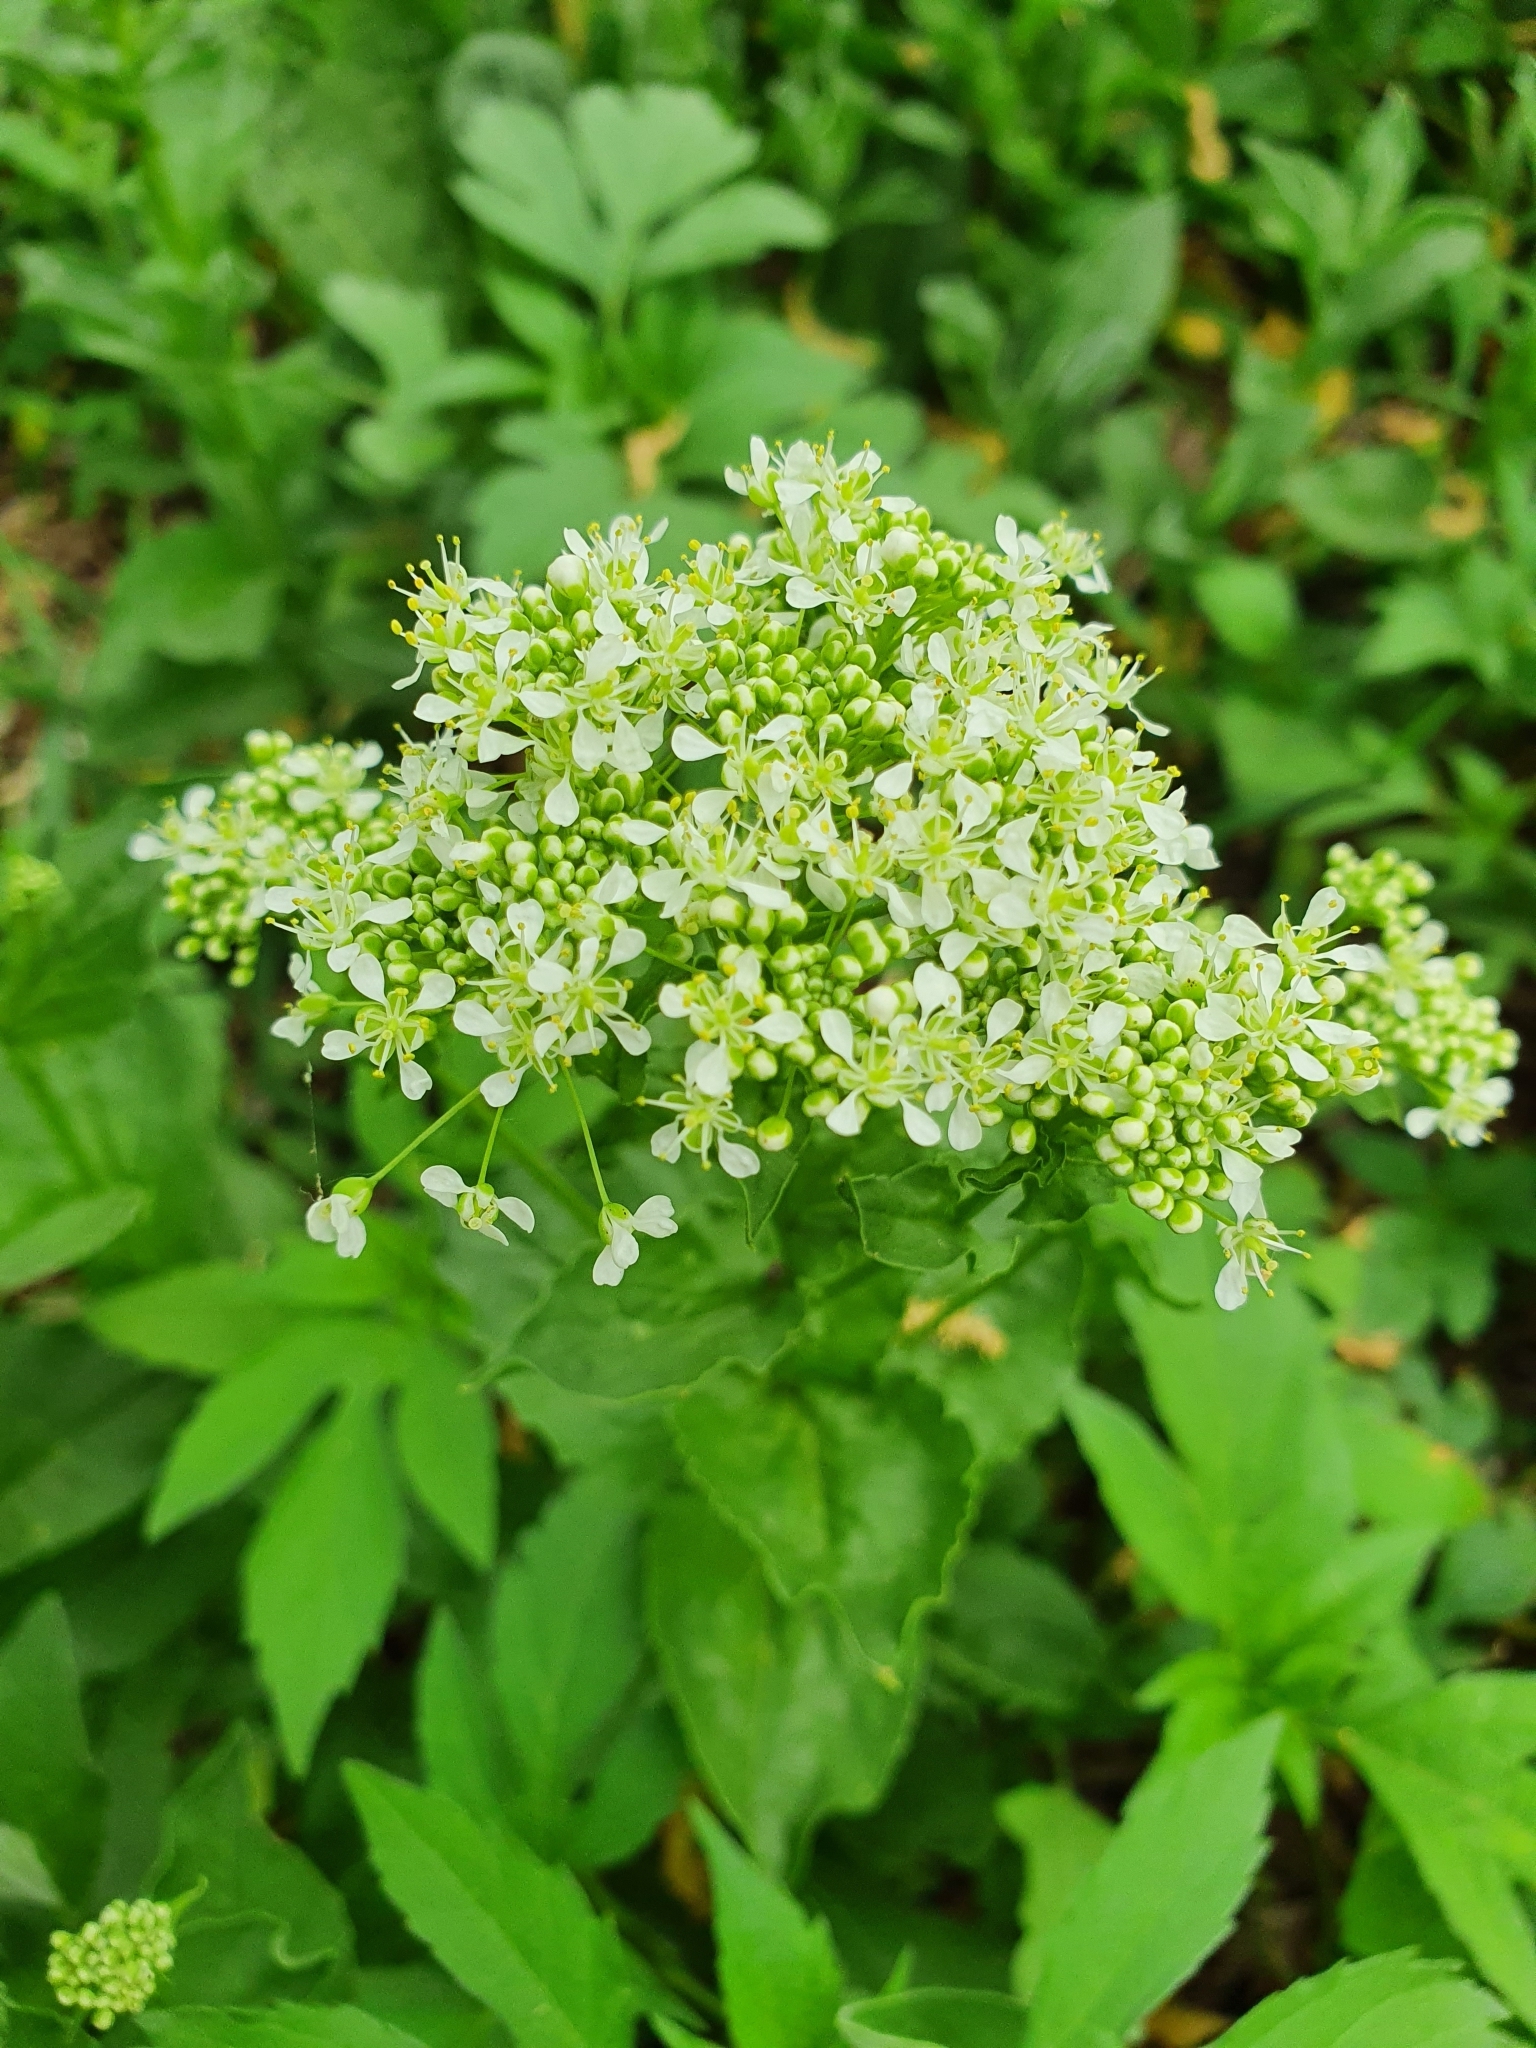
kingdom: Plantae
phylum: Tracheophyta
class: Magnoliopsida
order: Brassicales
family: Brassicaceae
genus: Lepidium
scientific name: Lepidium draba
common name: Hoary cress
